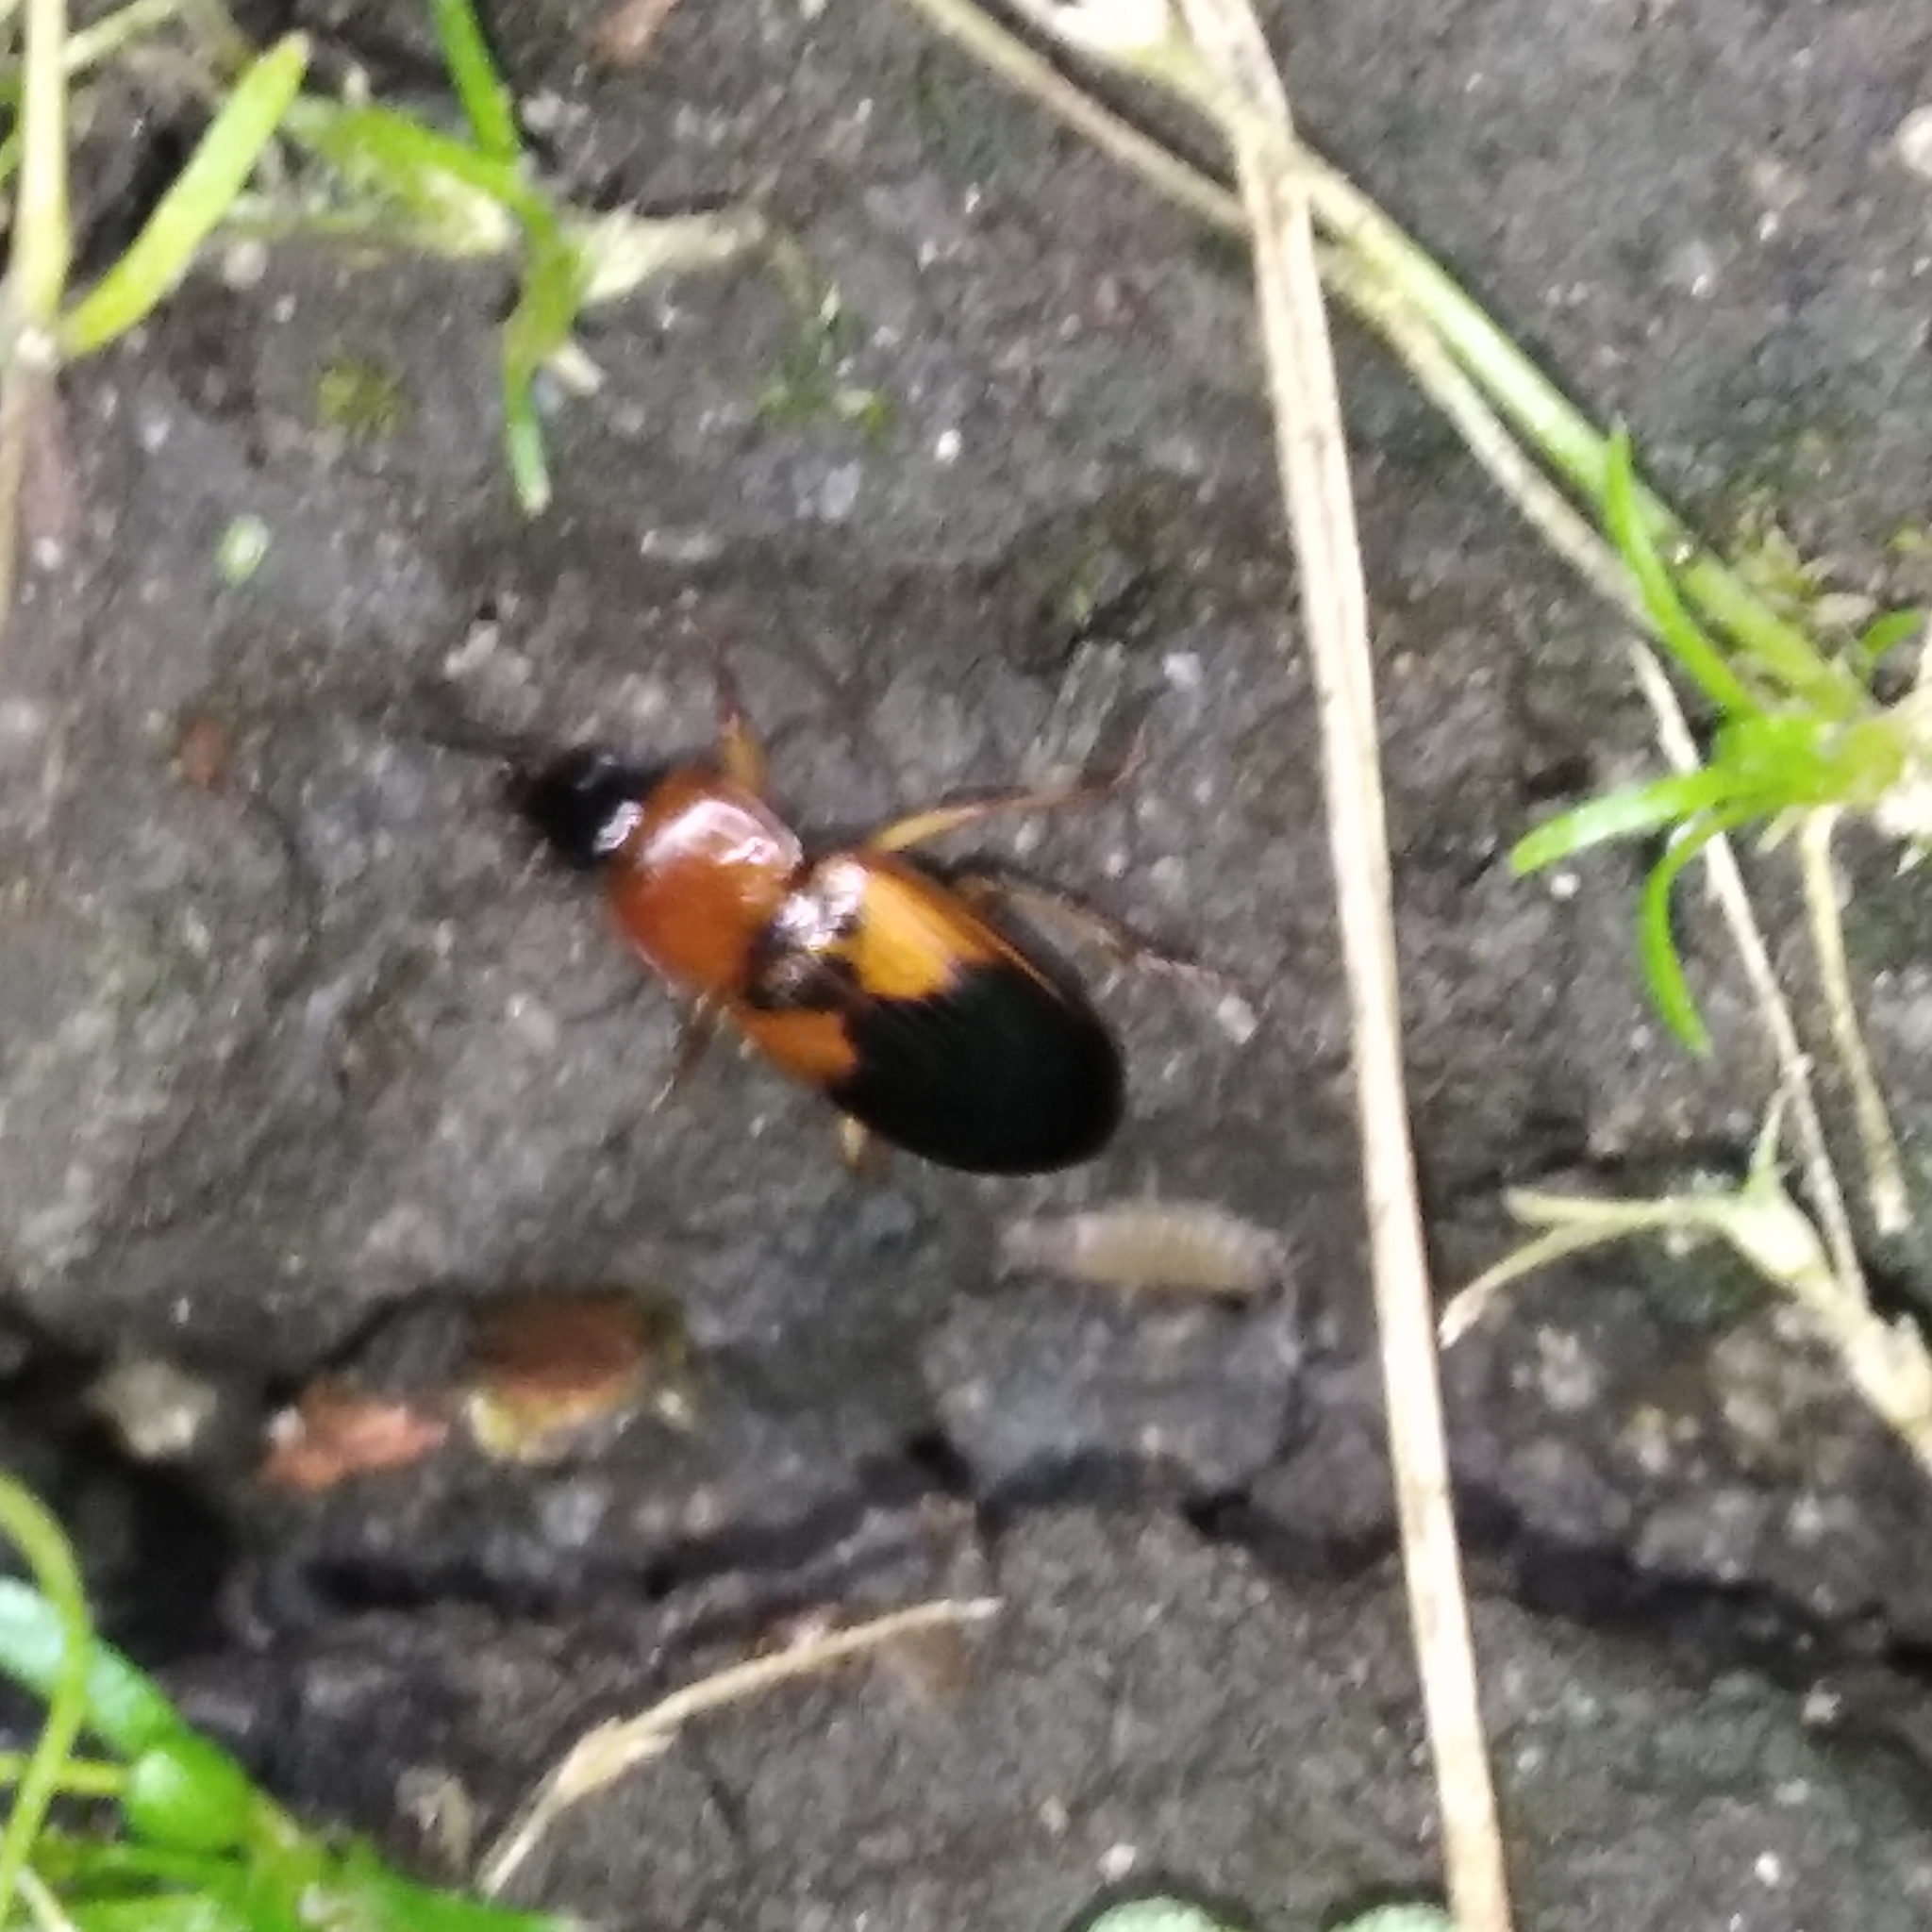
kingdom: Animalia
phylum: Arthropoda
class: Insecta
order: Coleoptera
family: Carabidae
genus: Stenolophus
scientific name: Stenolophus teutonus
